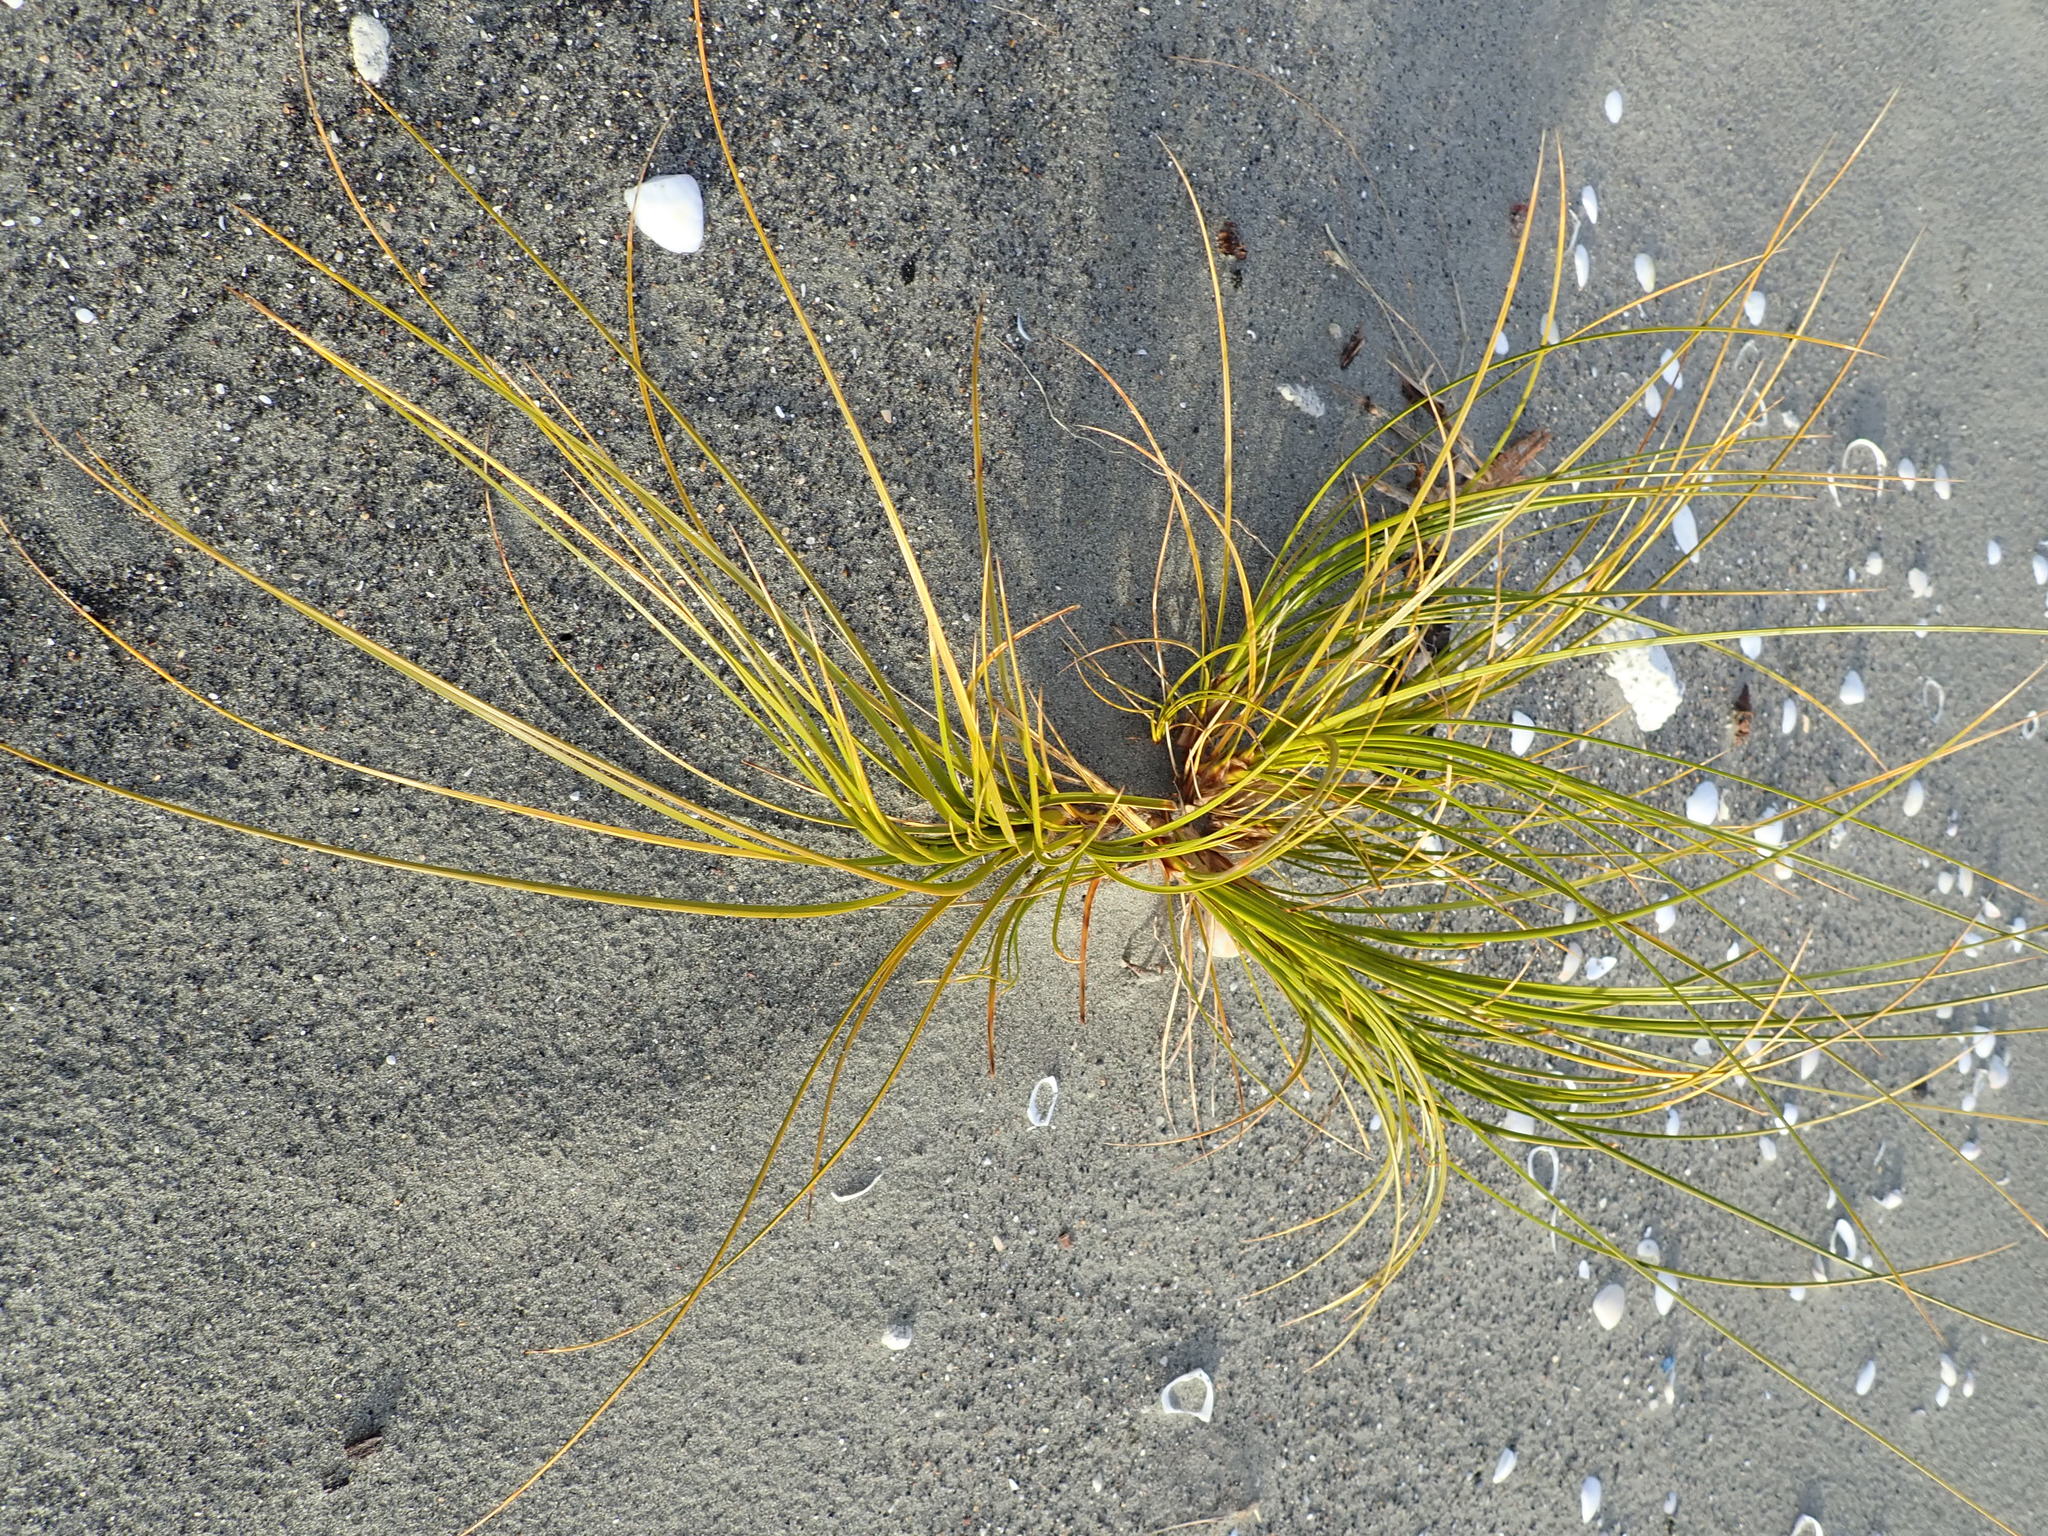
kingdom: Plantae
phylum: Tracheophyta
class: Liliopsida
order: Poales
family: Cyperaceae
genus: Ficinia
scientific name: Ficinia spiralis
